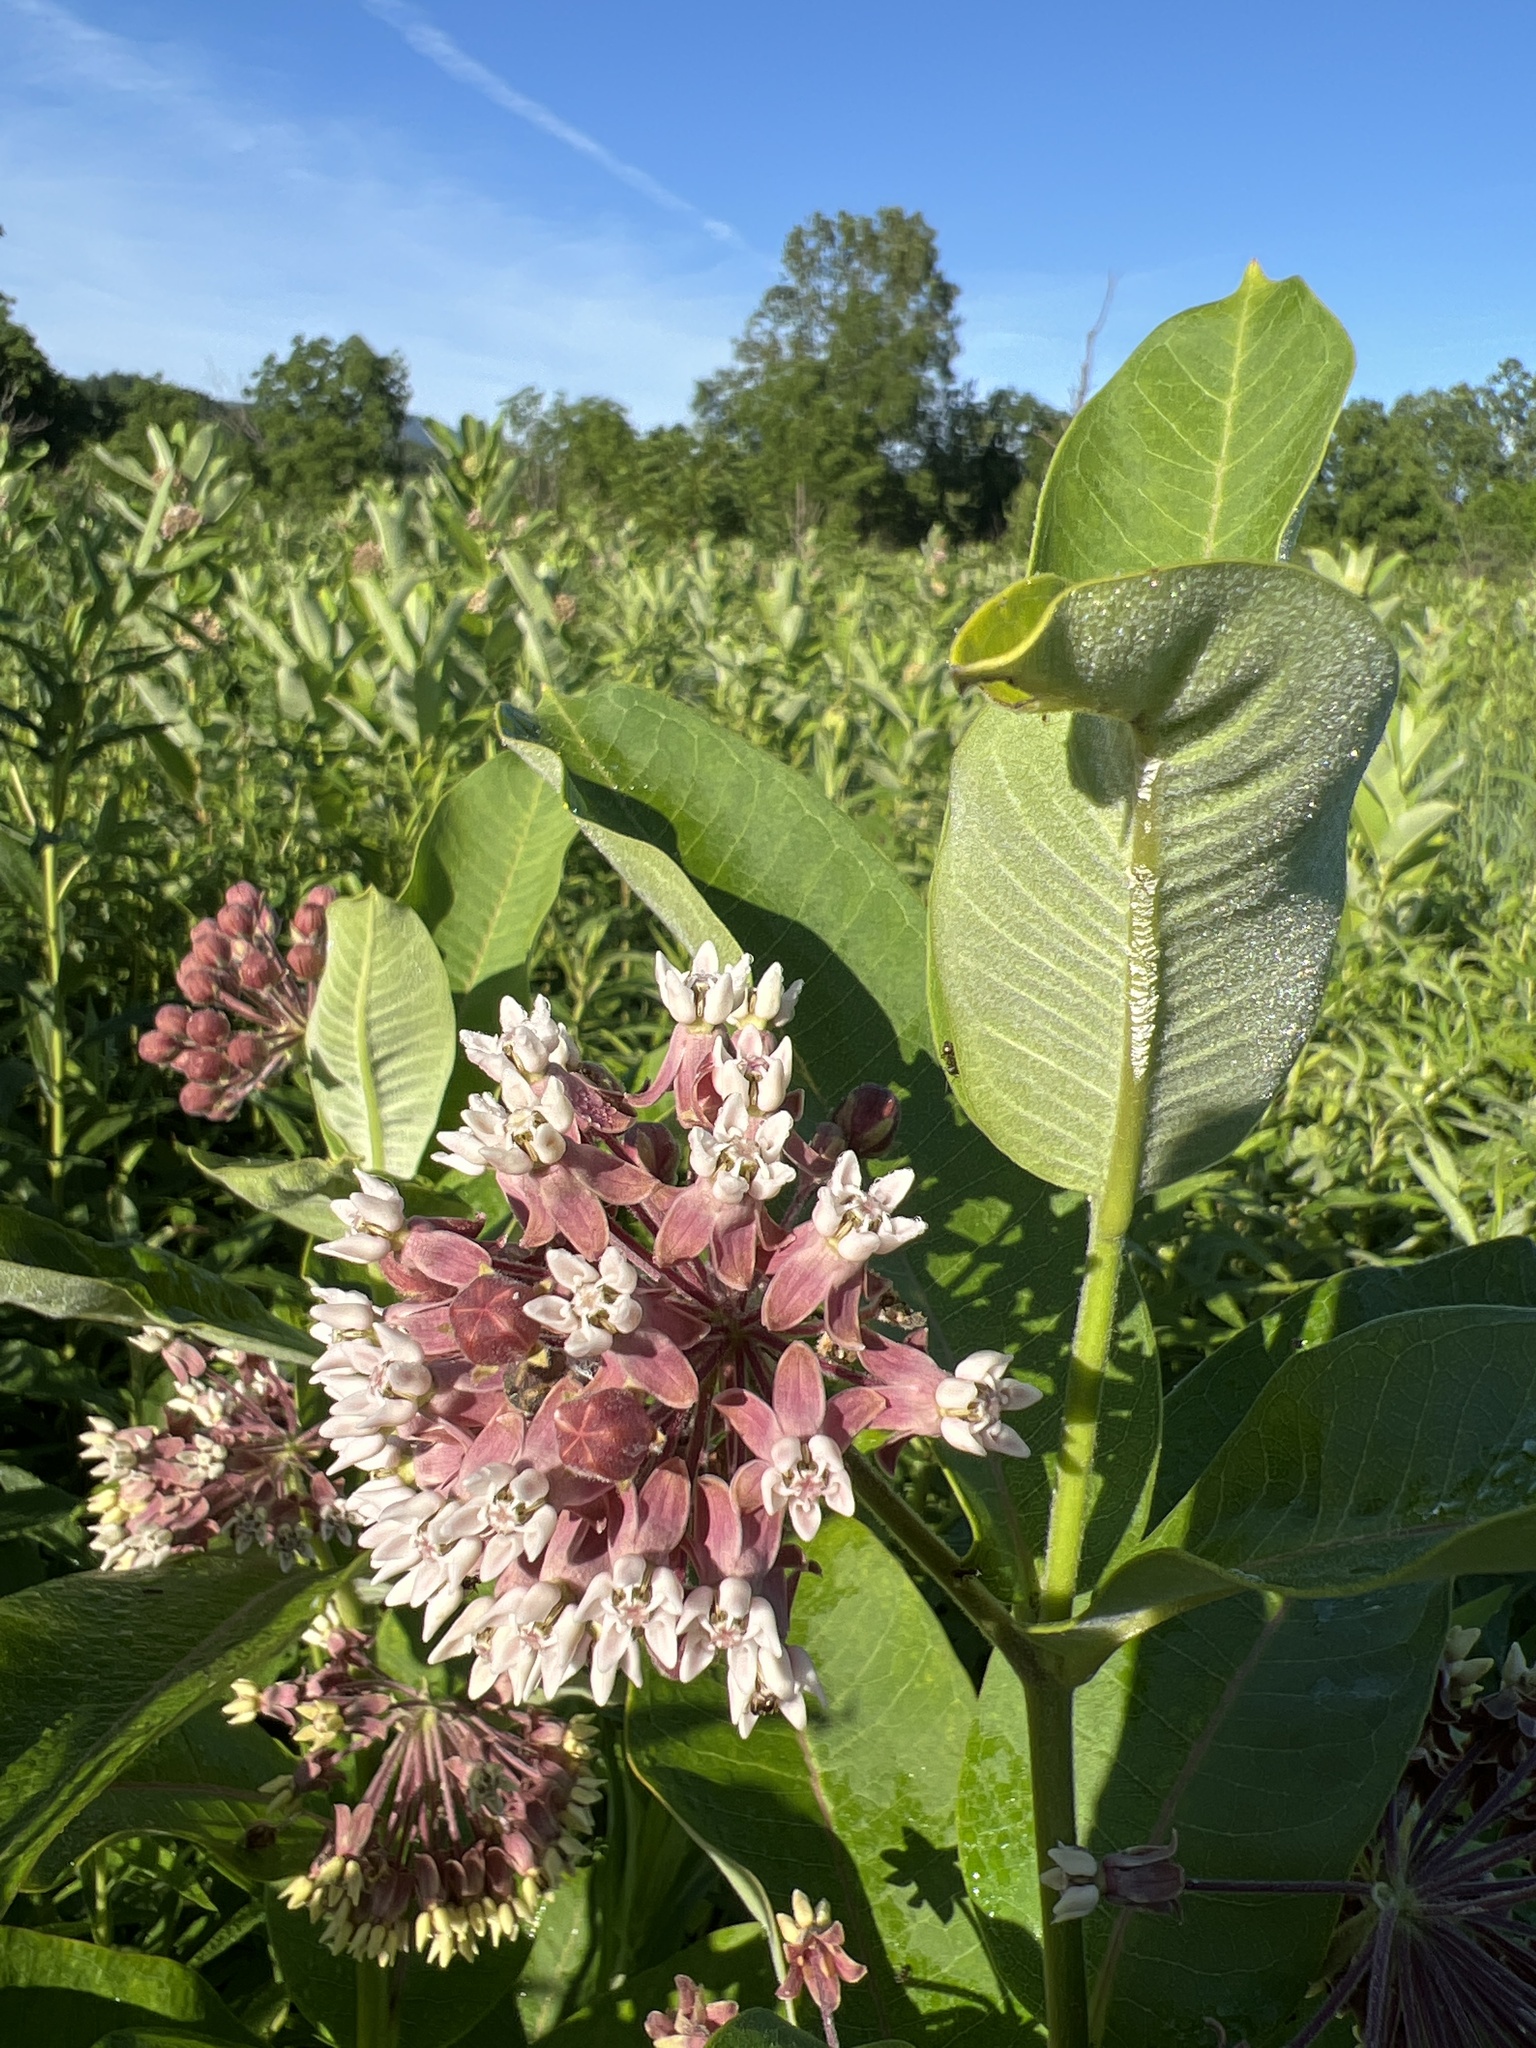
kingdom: Plantae
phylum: Tracheophyta
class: Magnoliopsida
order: Gentianales
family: Apocynaceae
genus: Asclepias
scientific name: Asclepias syriaca
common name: Common milkweed
